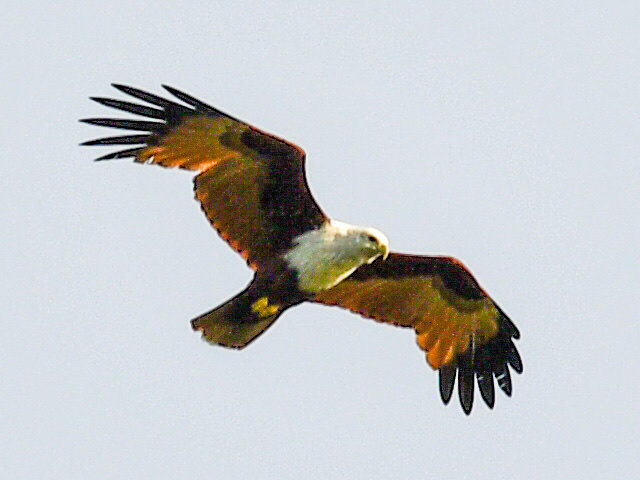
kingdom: Animalia
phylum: Chordata
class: Aves
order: Accipitriformes
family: Accipitridae
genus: Haliastur
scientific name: Haliastur indus
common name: Brahminy kite
